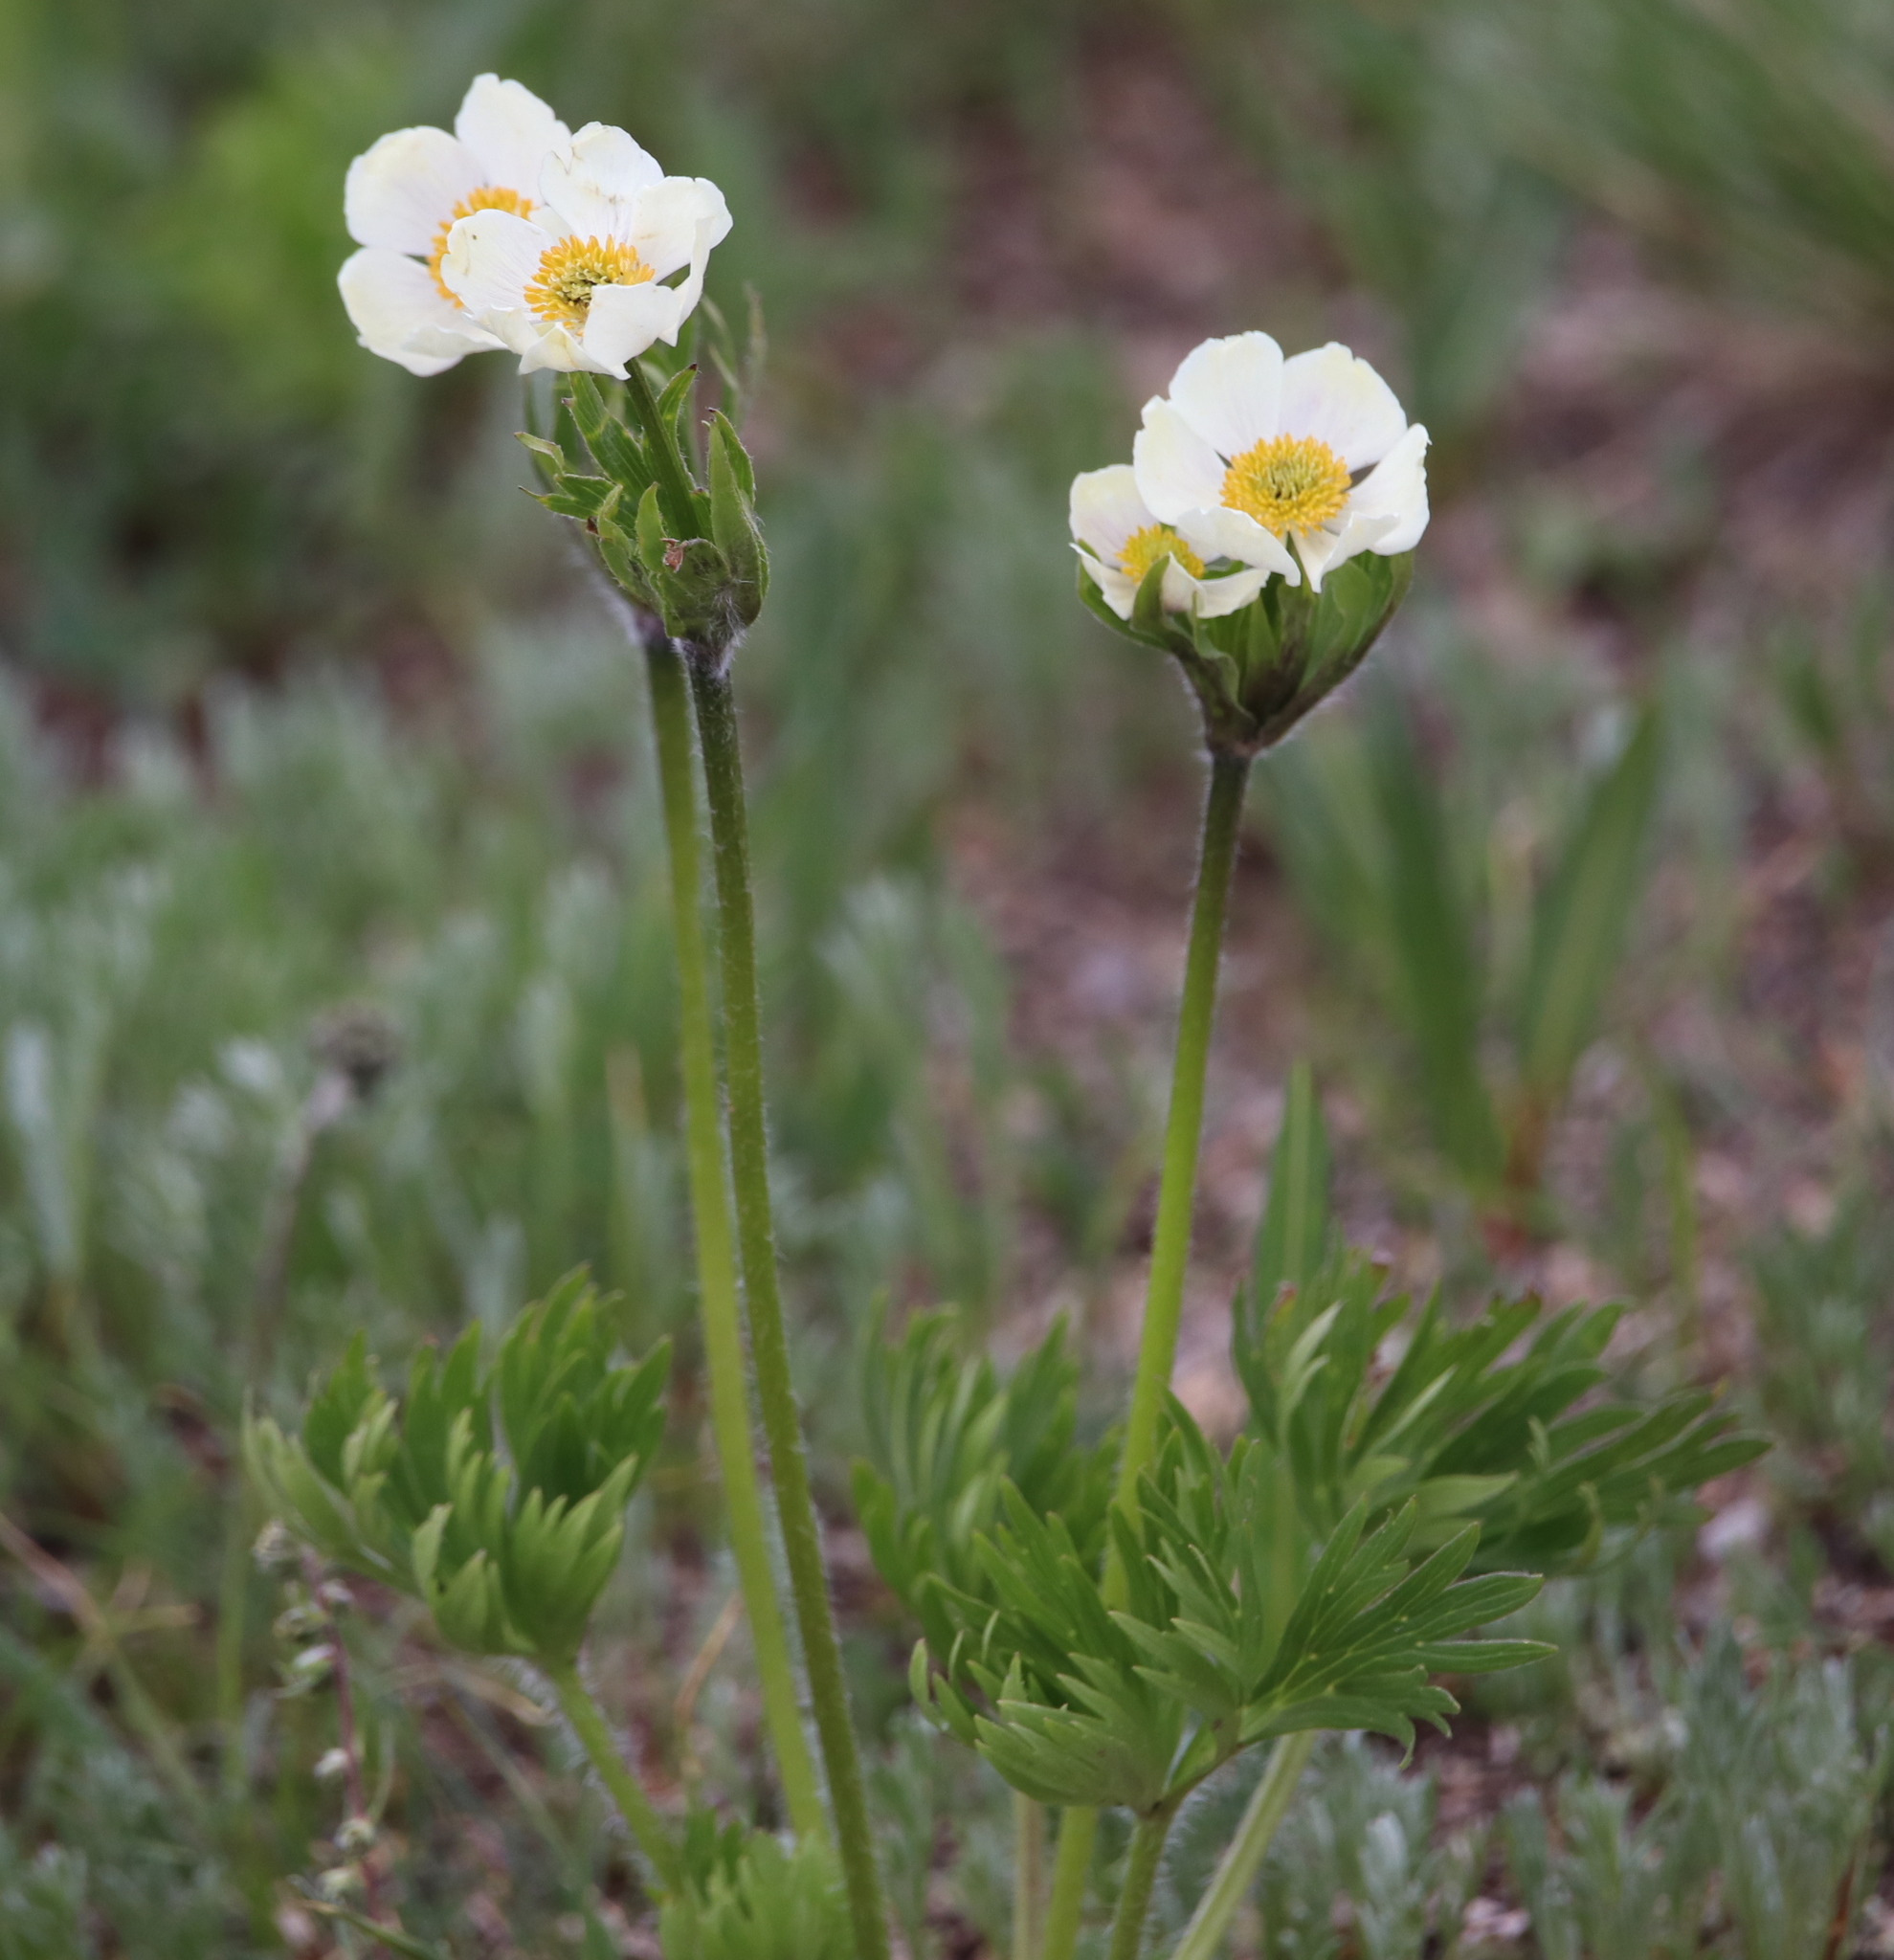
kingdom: Plantae
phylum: Tracheophyta
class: Magnoliopsida
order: Ranunculales
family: Ranunculaceae
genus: Anemonastrum
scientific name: Anemonastrum narcissiflorum
